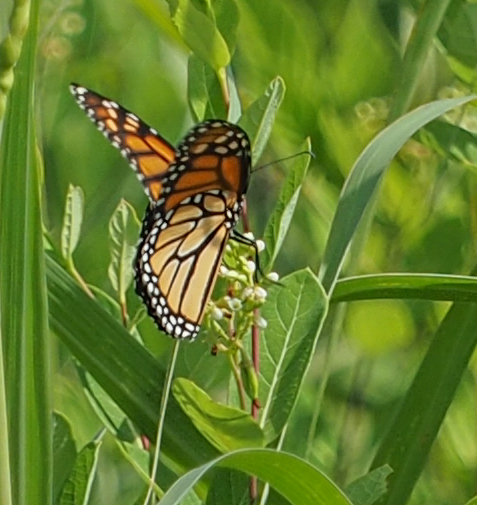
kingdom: Animalia
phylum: Arthropoda
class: Insecta
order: Lepidoptera
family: Nymphalidae
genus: Danaus
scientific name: Danaus plexippus
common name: Monarch
